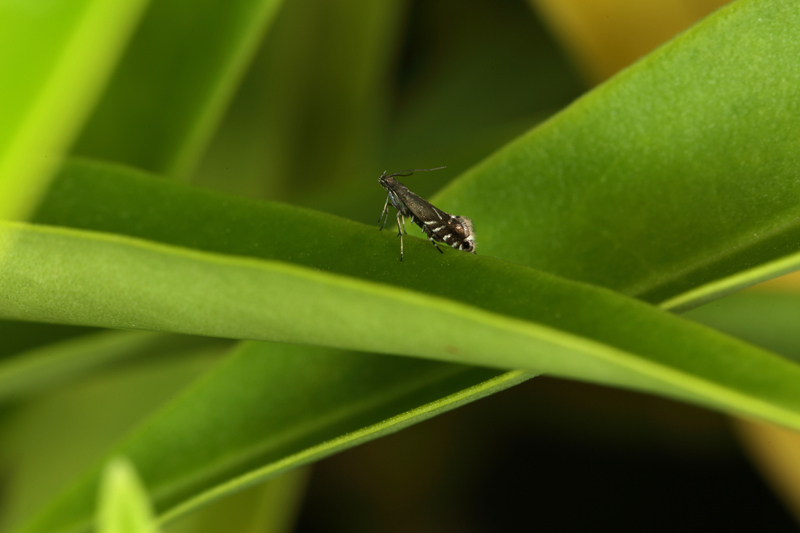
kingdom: Animalia
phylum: Arthropoda
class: Insecta
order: Lepidoptera
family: Glyphipterigidae
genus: Glyphipterix
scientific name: Glyphipterix morangella
